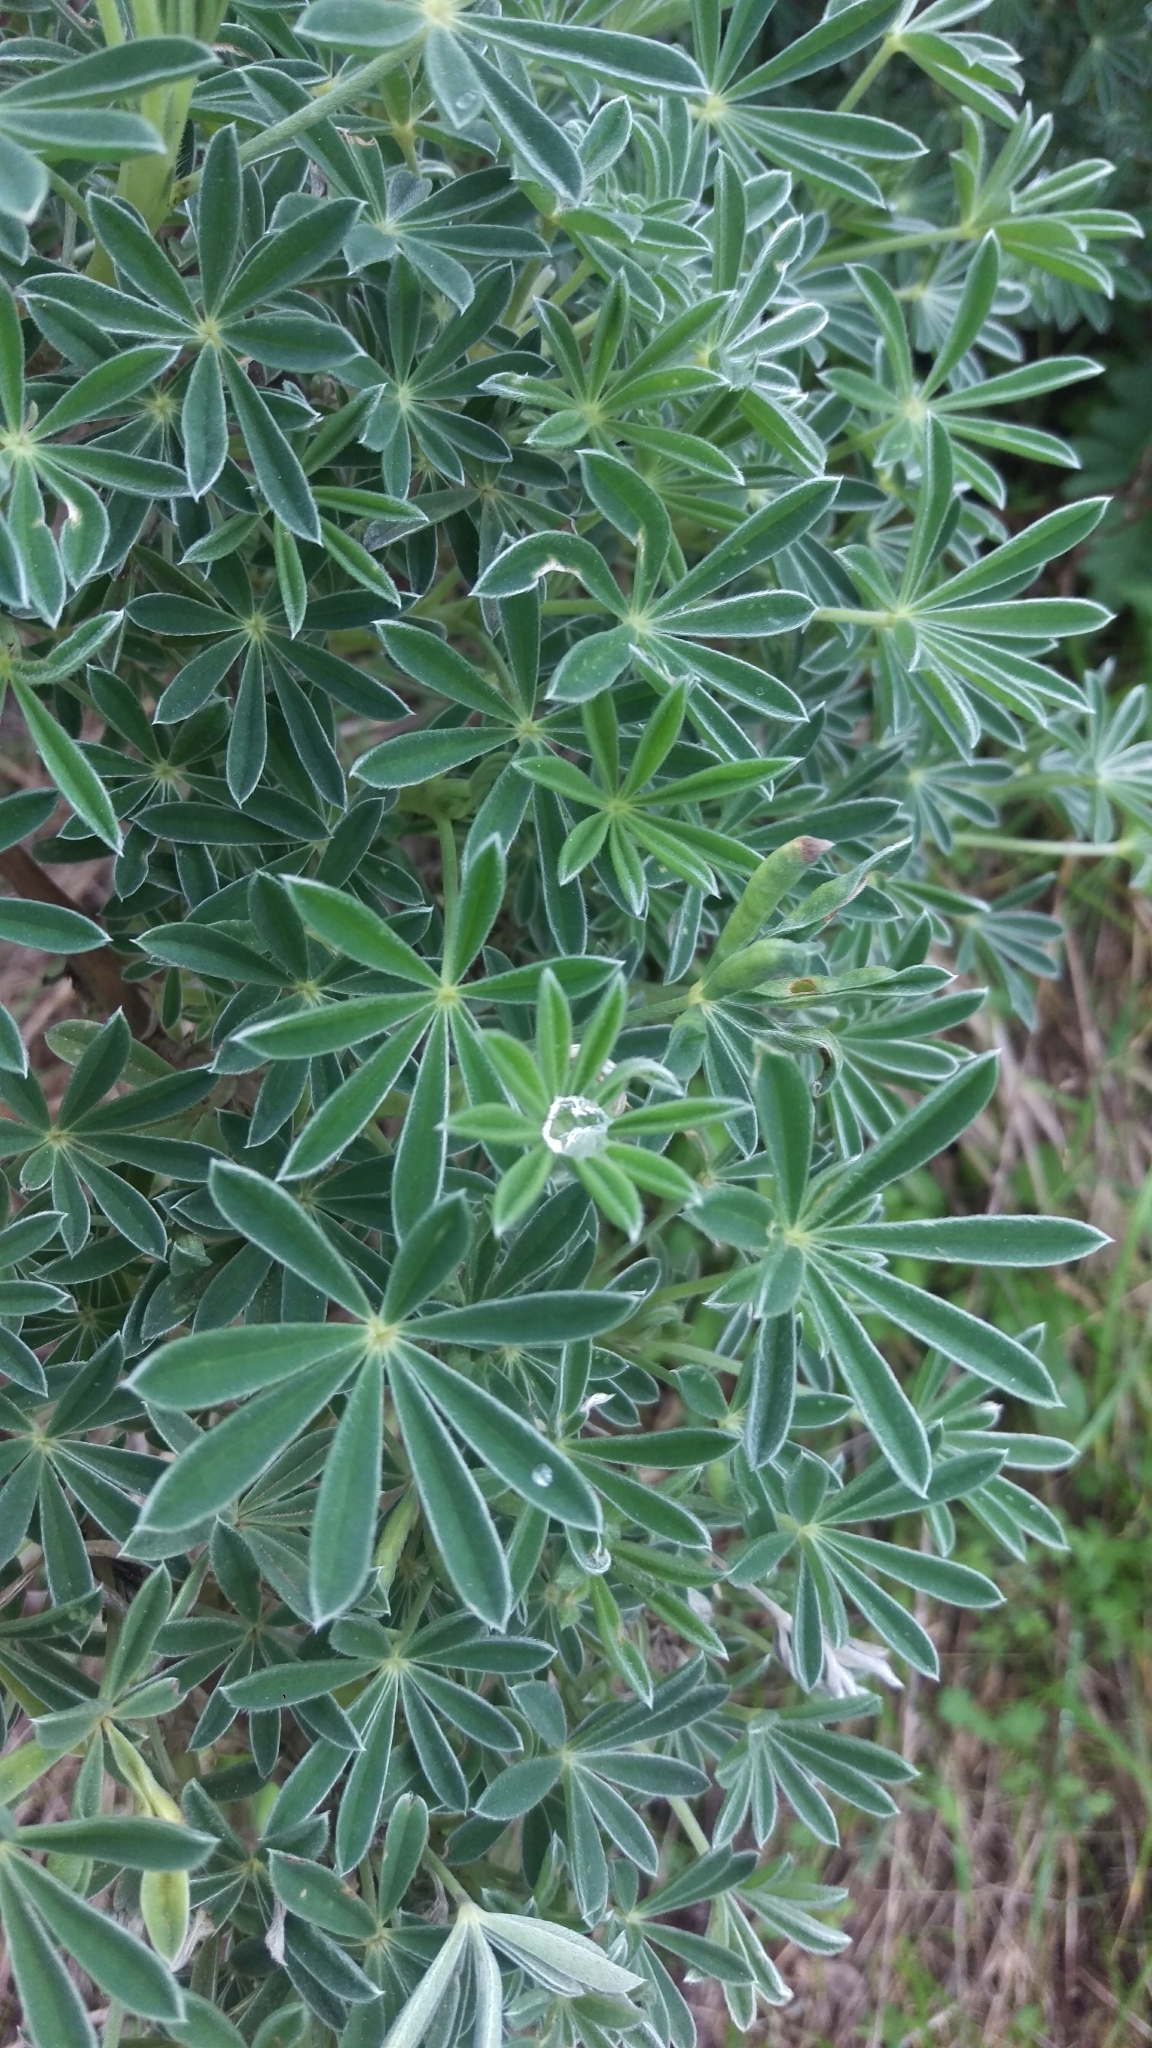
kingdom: Plantae
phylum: Tracheophyta
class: Magnoliopsida
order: Fabales
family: Fabaceae
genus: Lupinus
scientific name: Lupinus arboreus
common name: Yellow bush lupine
